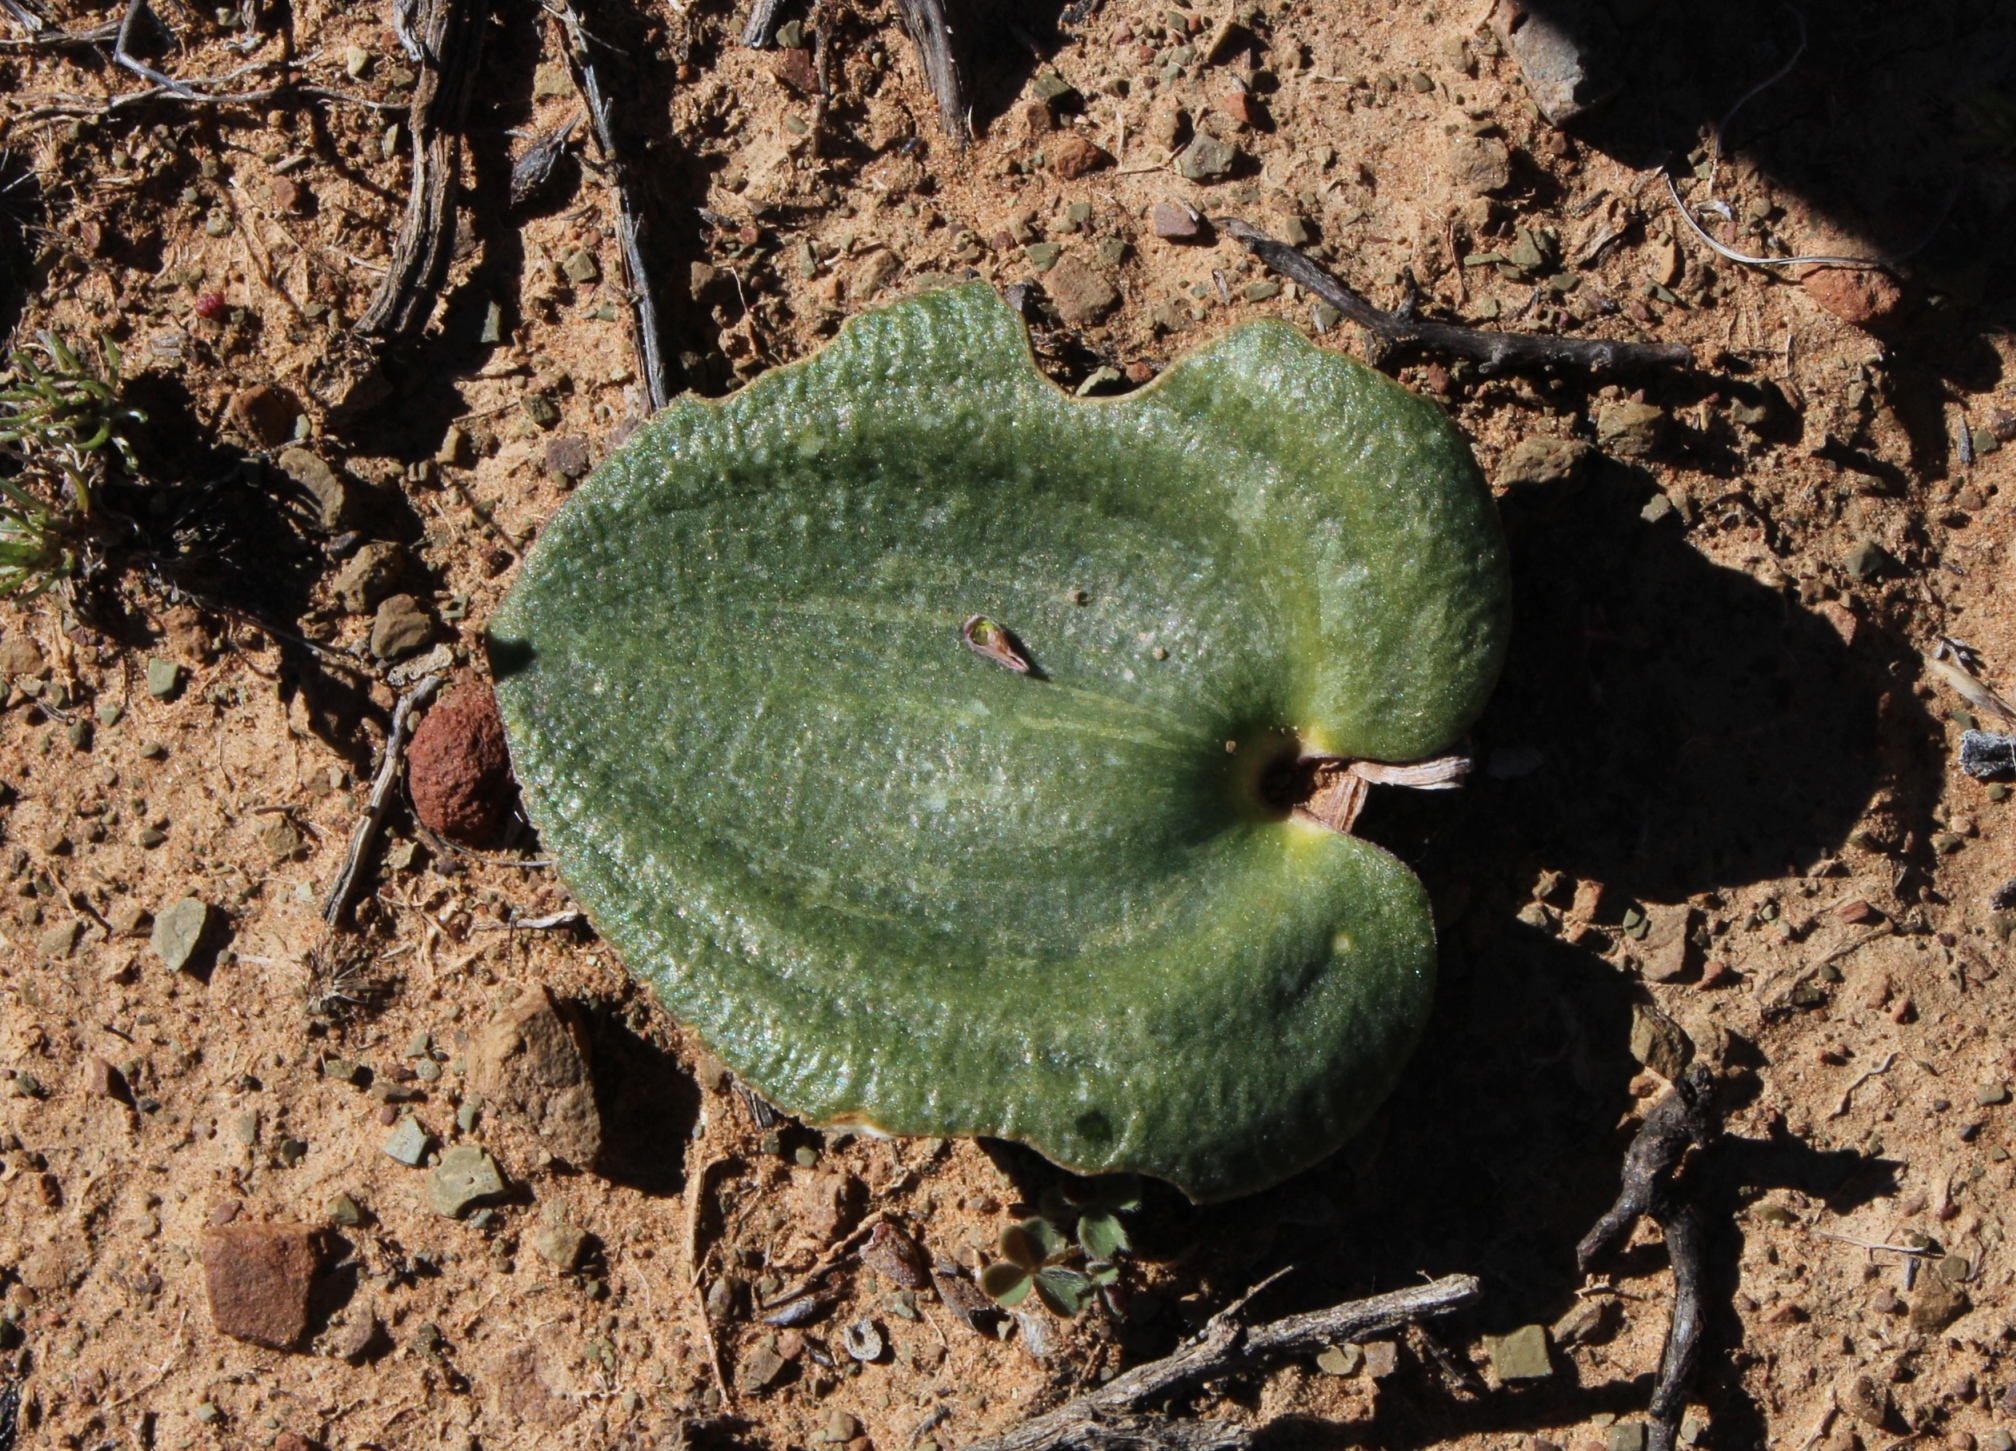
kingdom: Plantae
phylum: Tracheophyta
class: Liliopsida
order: Asparagales
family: Asparagaceae
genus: Eriospermum
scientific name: Eriospermum capense
